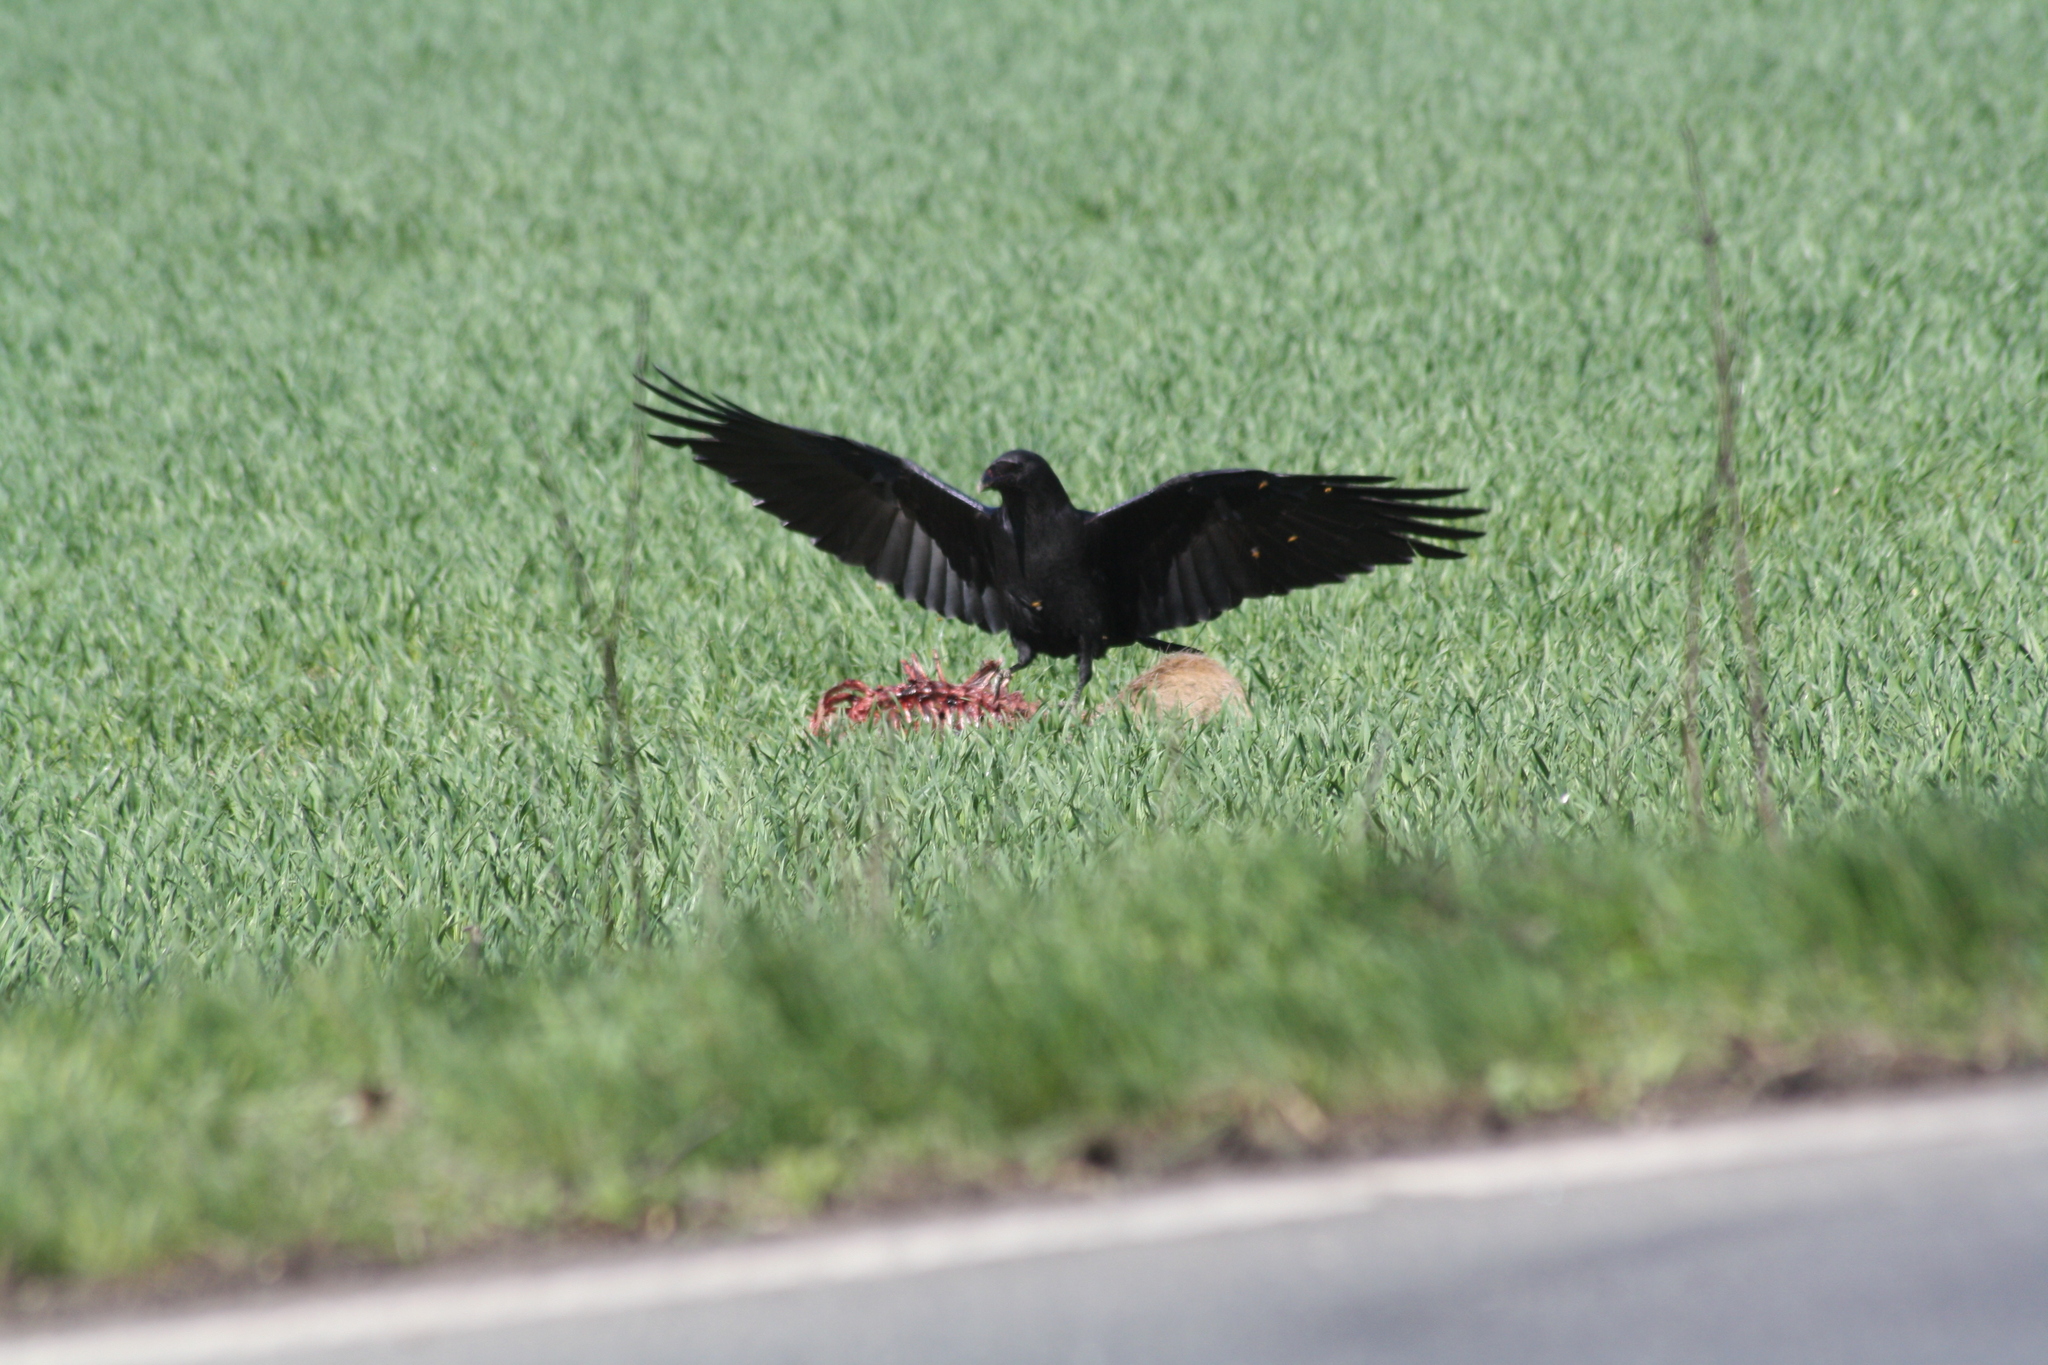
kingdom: Animalia
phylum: Chordata
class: Aves
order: Passeriformes
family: Corvidae
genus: Corvus
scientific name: Corvus corone
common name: Carrion crow
